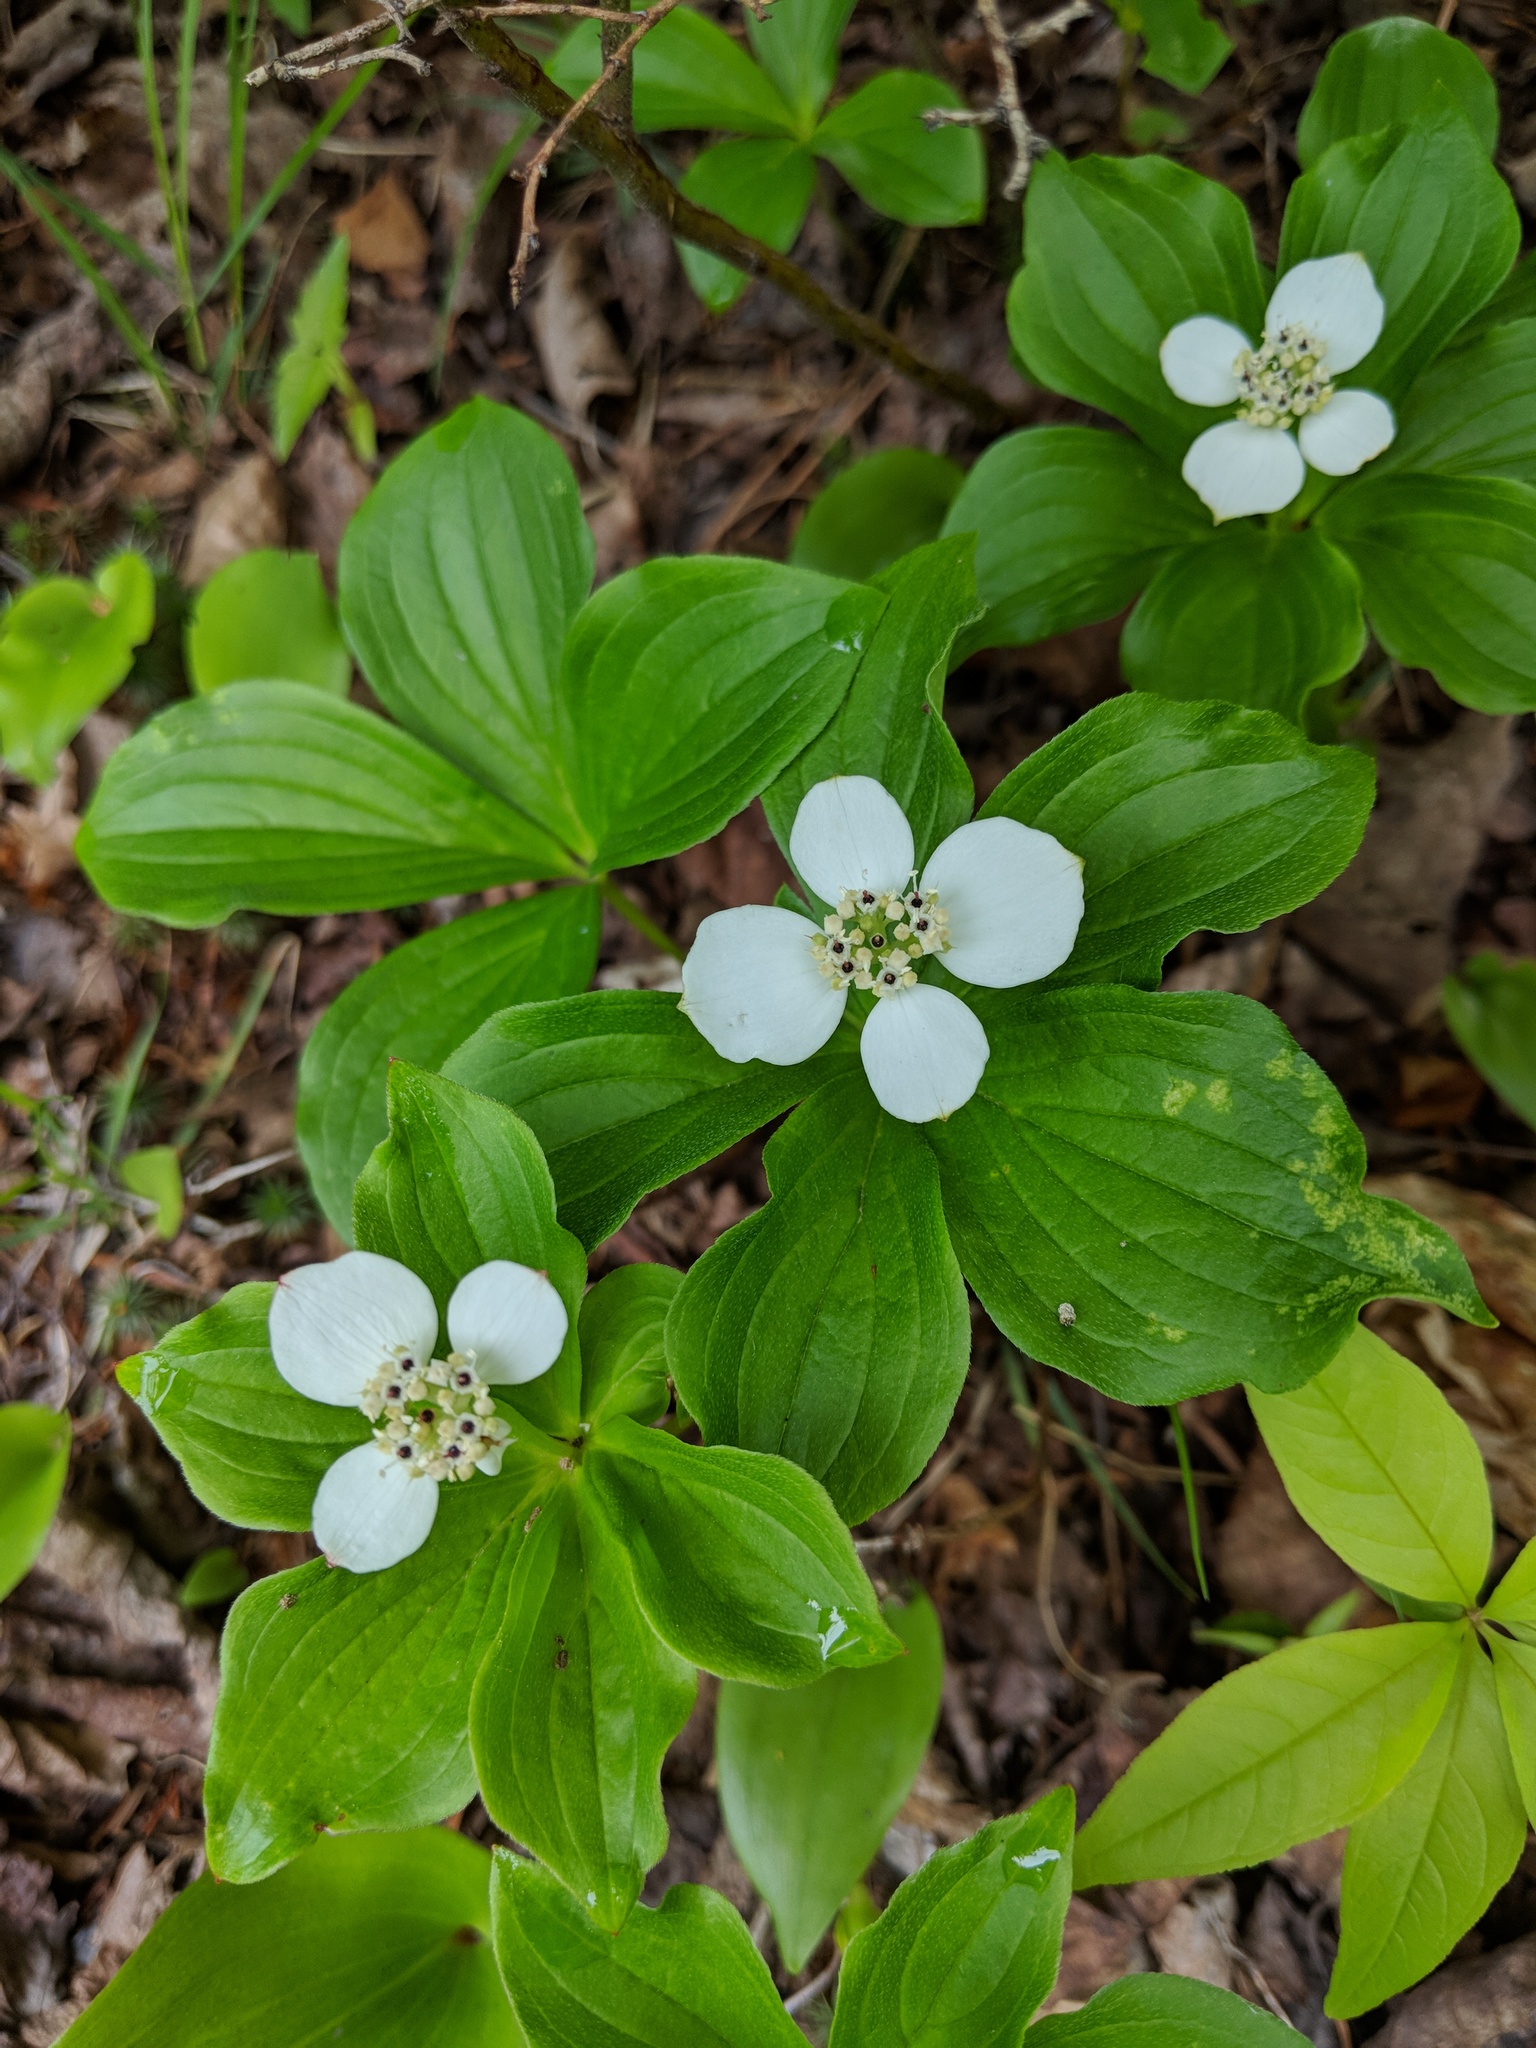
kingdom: Plantae
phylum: Tracheophyta
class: Magnoliopsida
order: Cornales
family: Cornaceae
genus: Cornus
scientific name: Cornus canadensis
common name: Creeping dogwood
